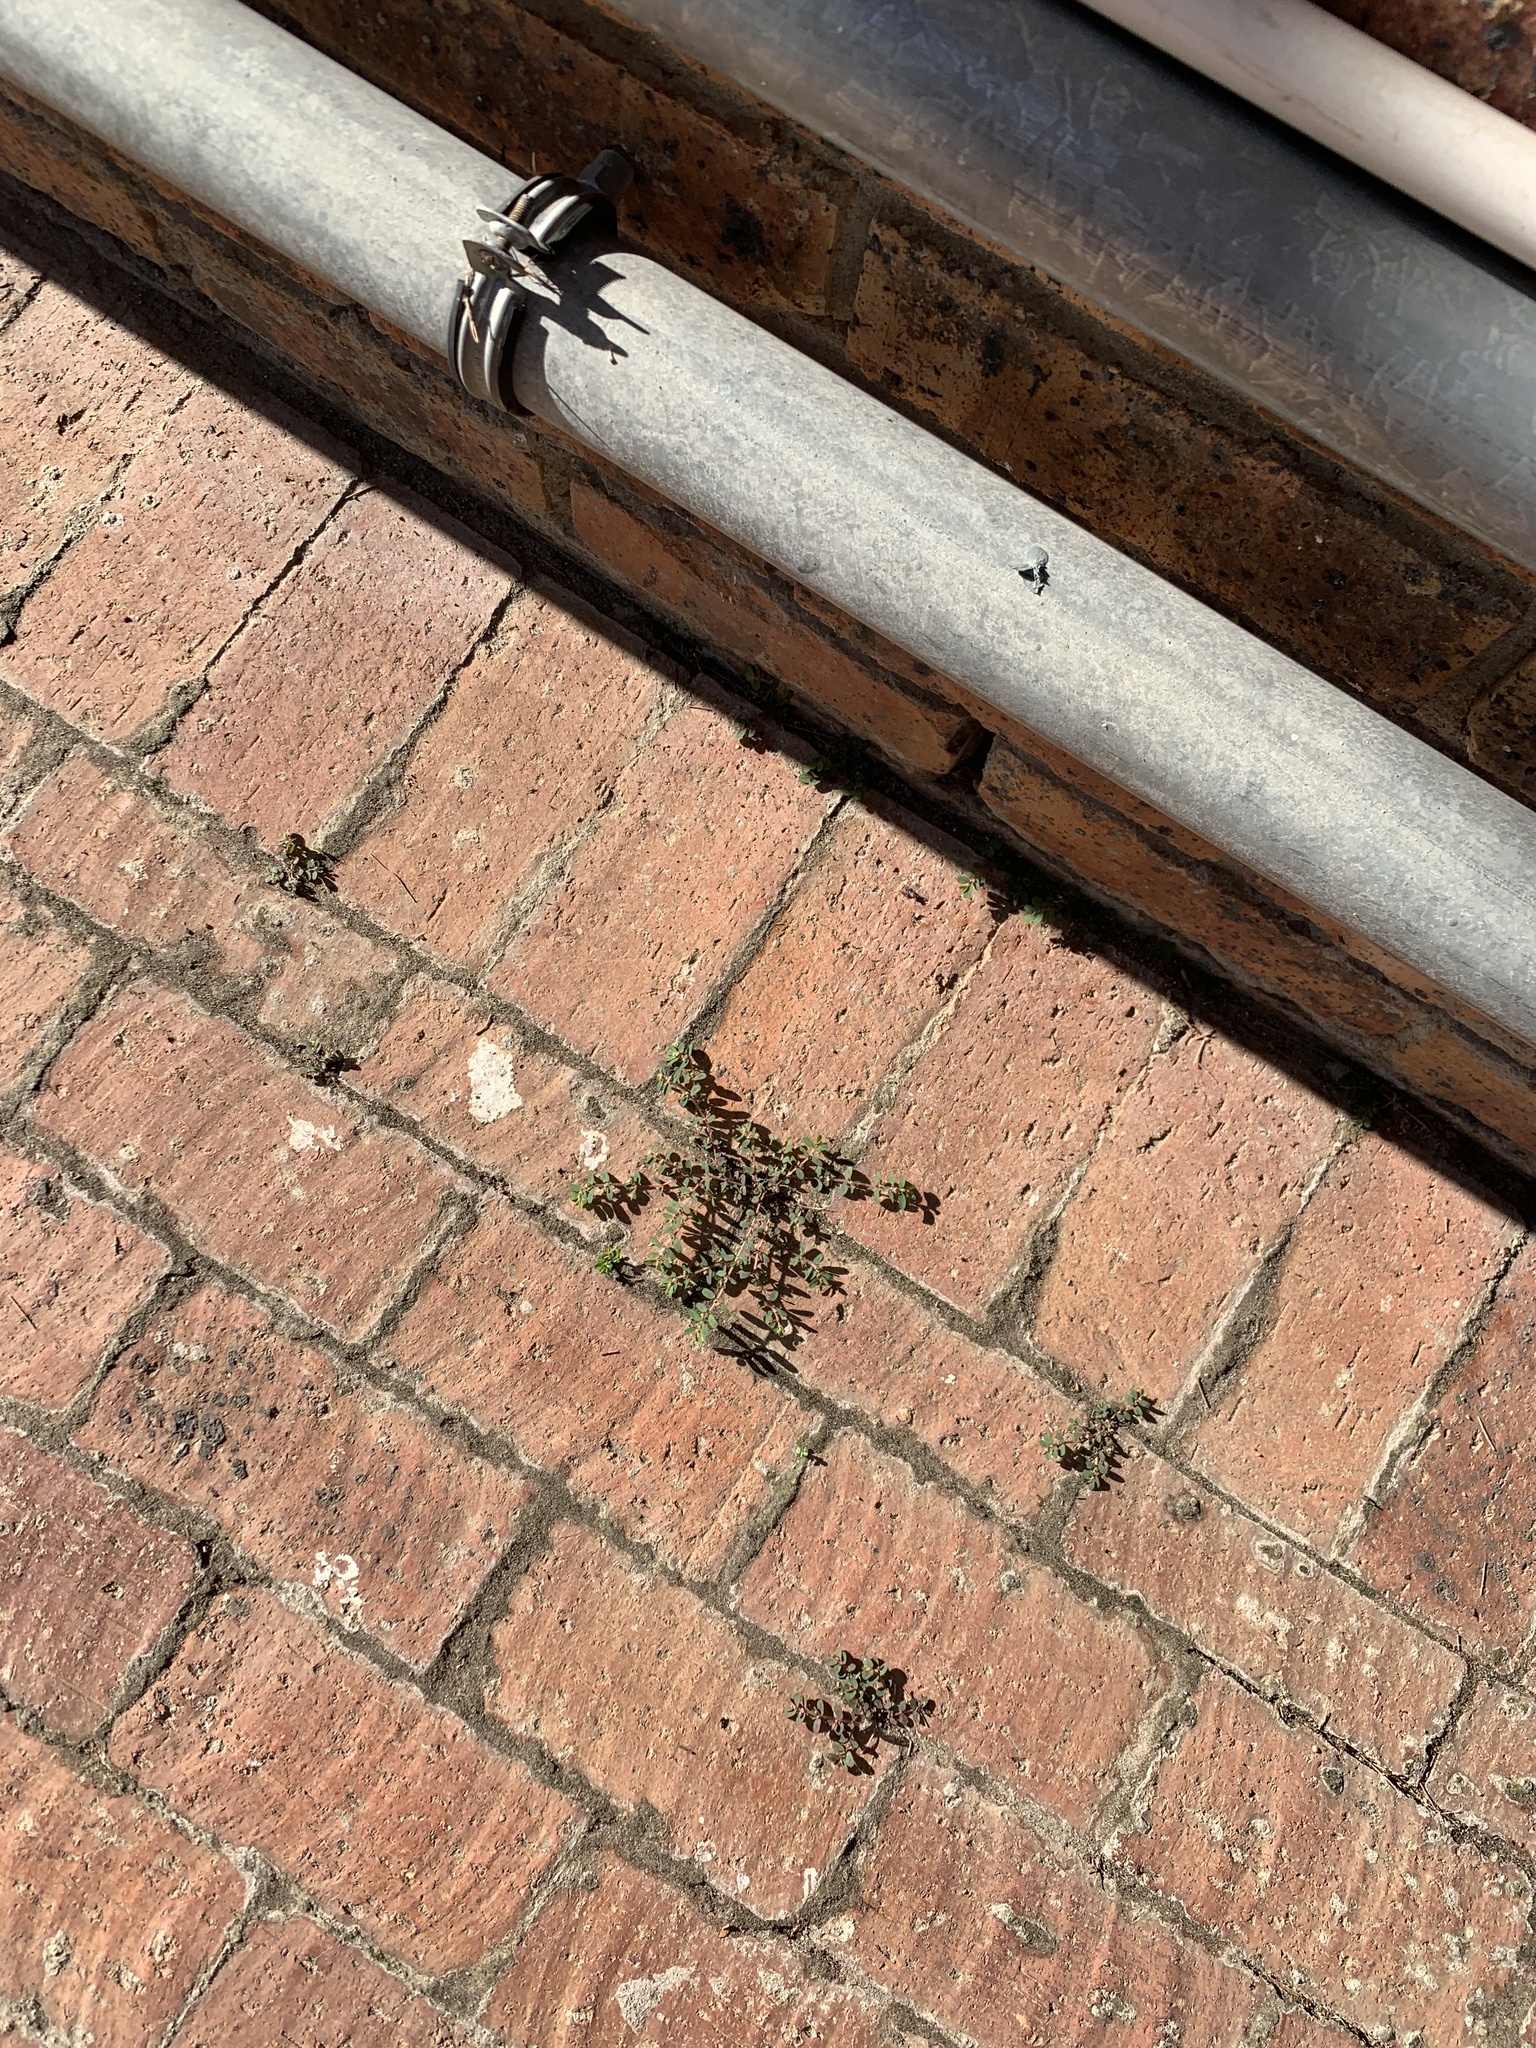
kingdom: Plantae
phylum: Tracheophyta
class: Magnoliopsida
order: Malpighiales
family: Euphorbiaceae
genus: Euphorbia
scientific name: Euphorbia maculata
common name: Spotted spurge
